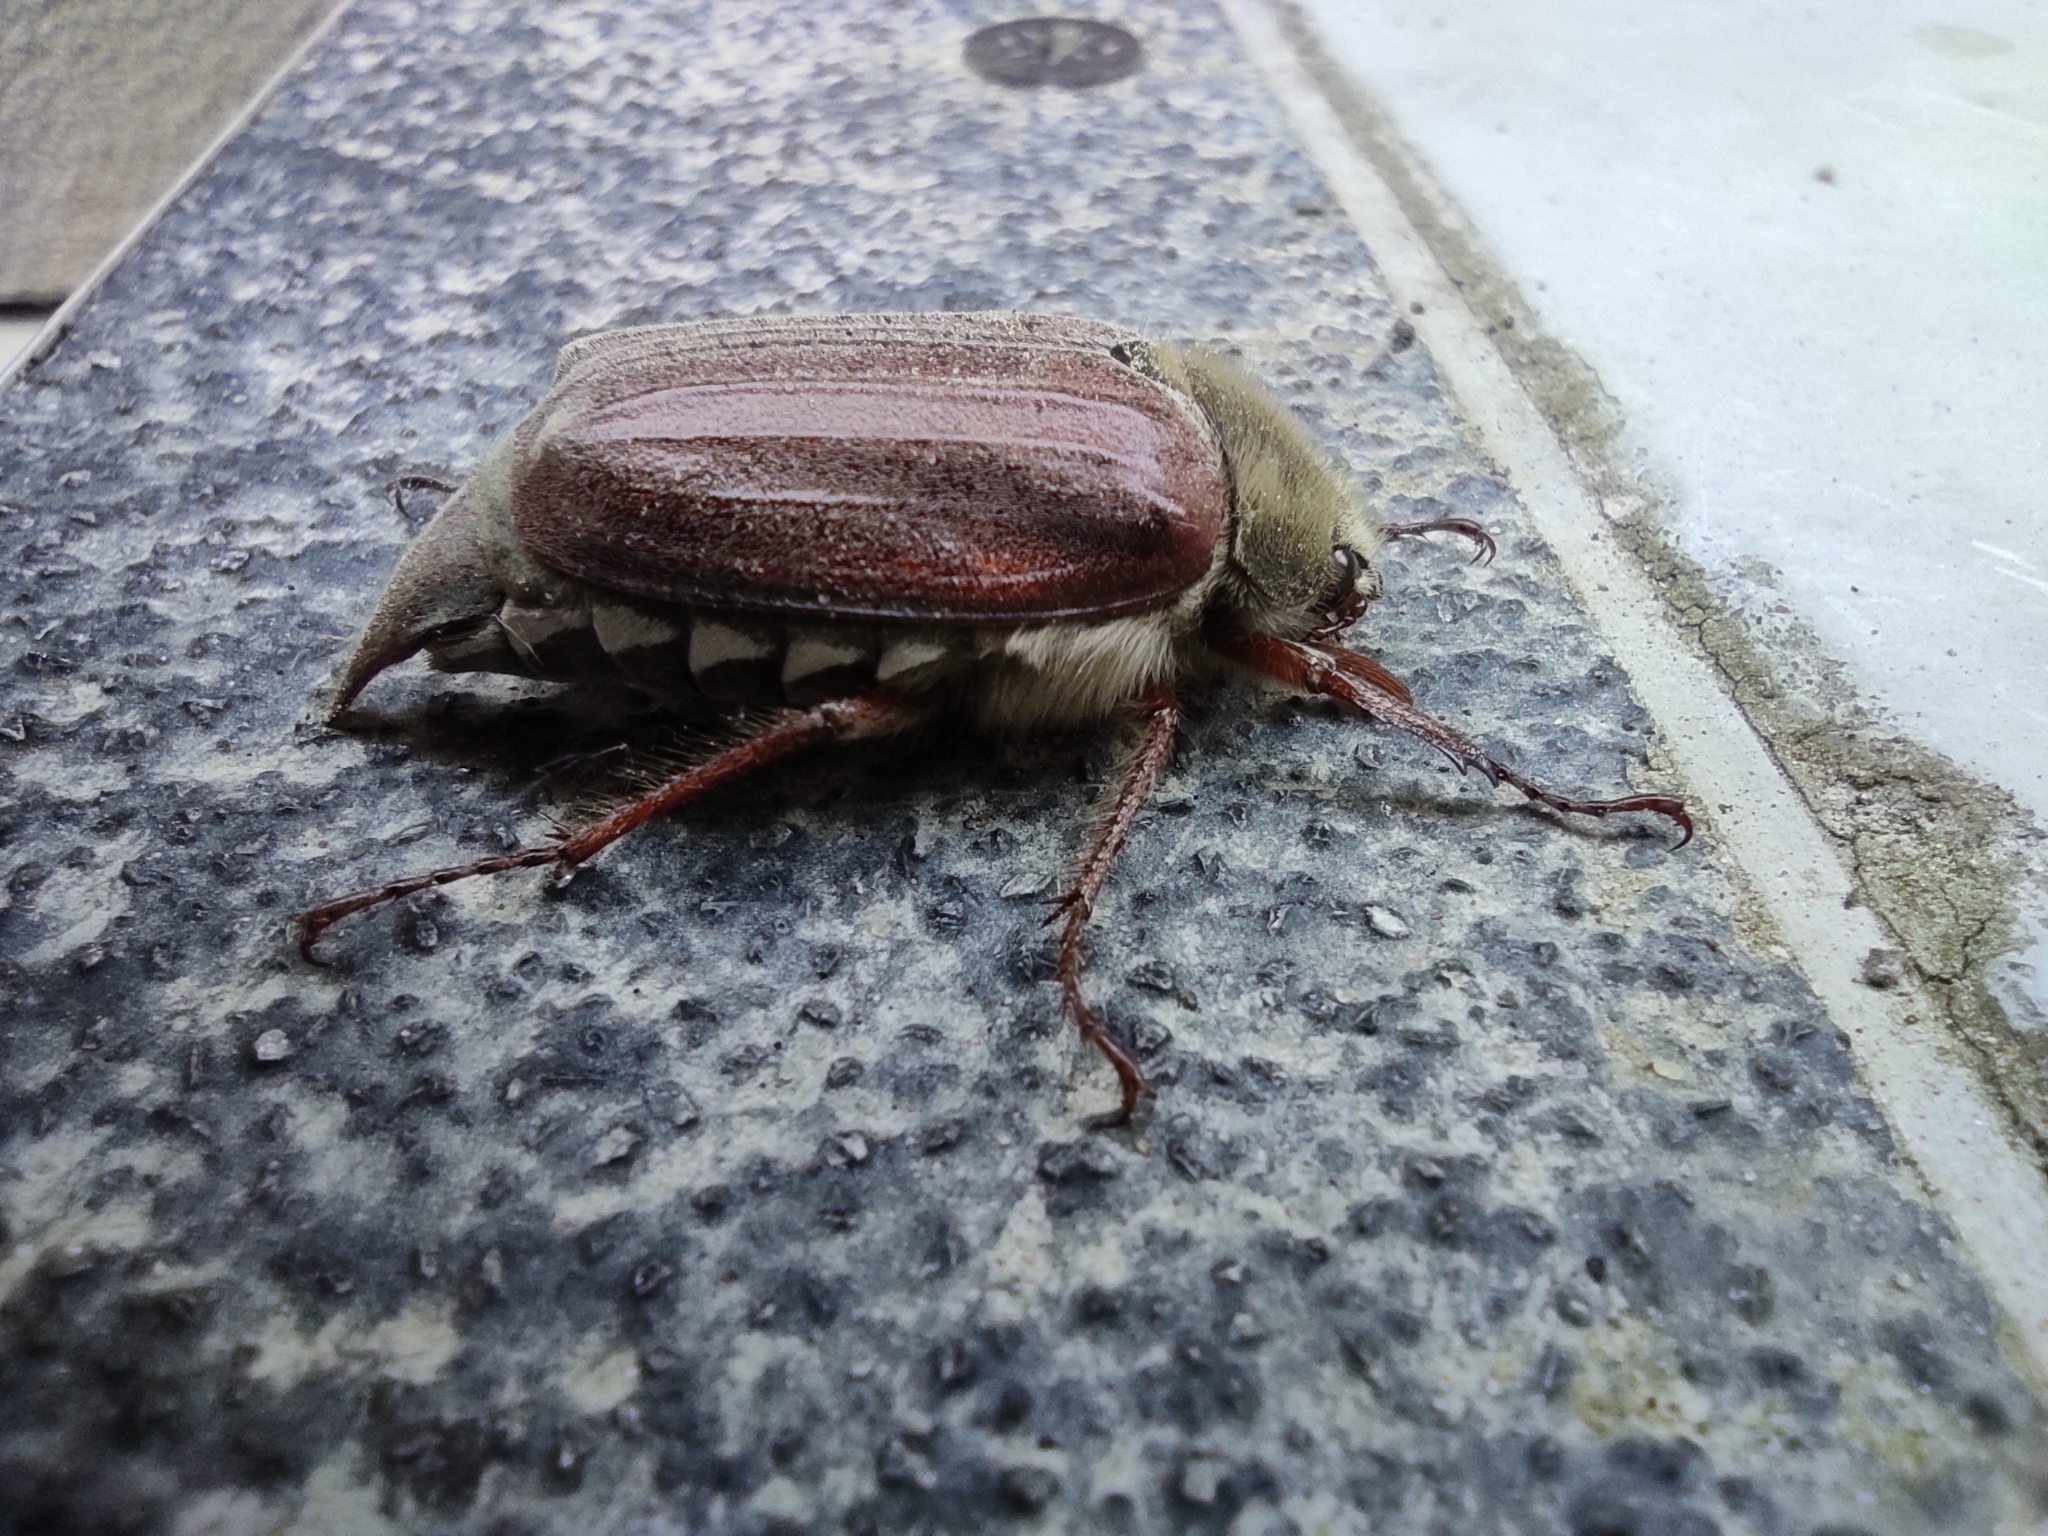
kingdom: Animalia
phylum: Arthropoda
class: Insecta
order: Coleoptera
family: Scarabaeidae
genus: Melolontha
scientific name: Melolontha melolontha
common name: Cockchafer maybeetle
